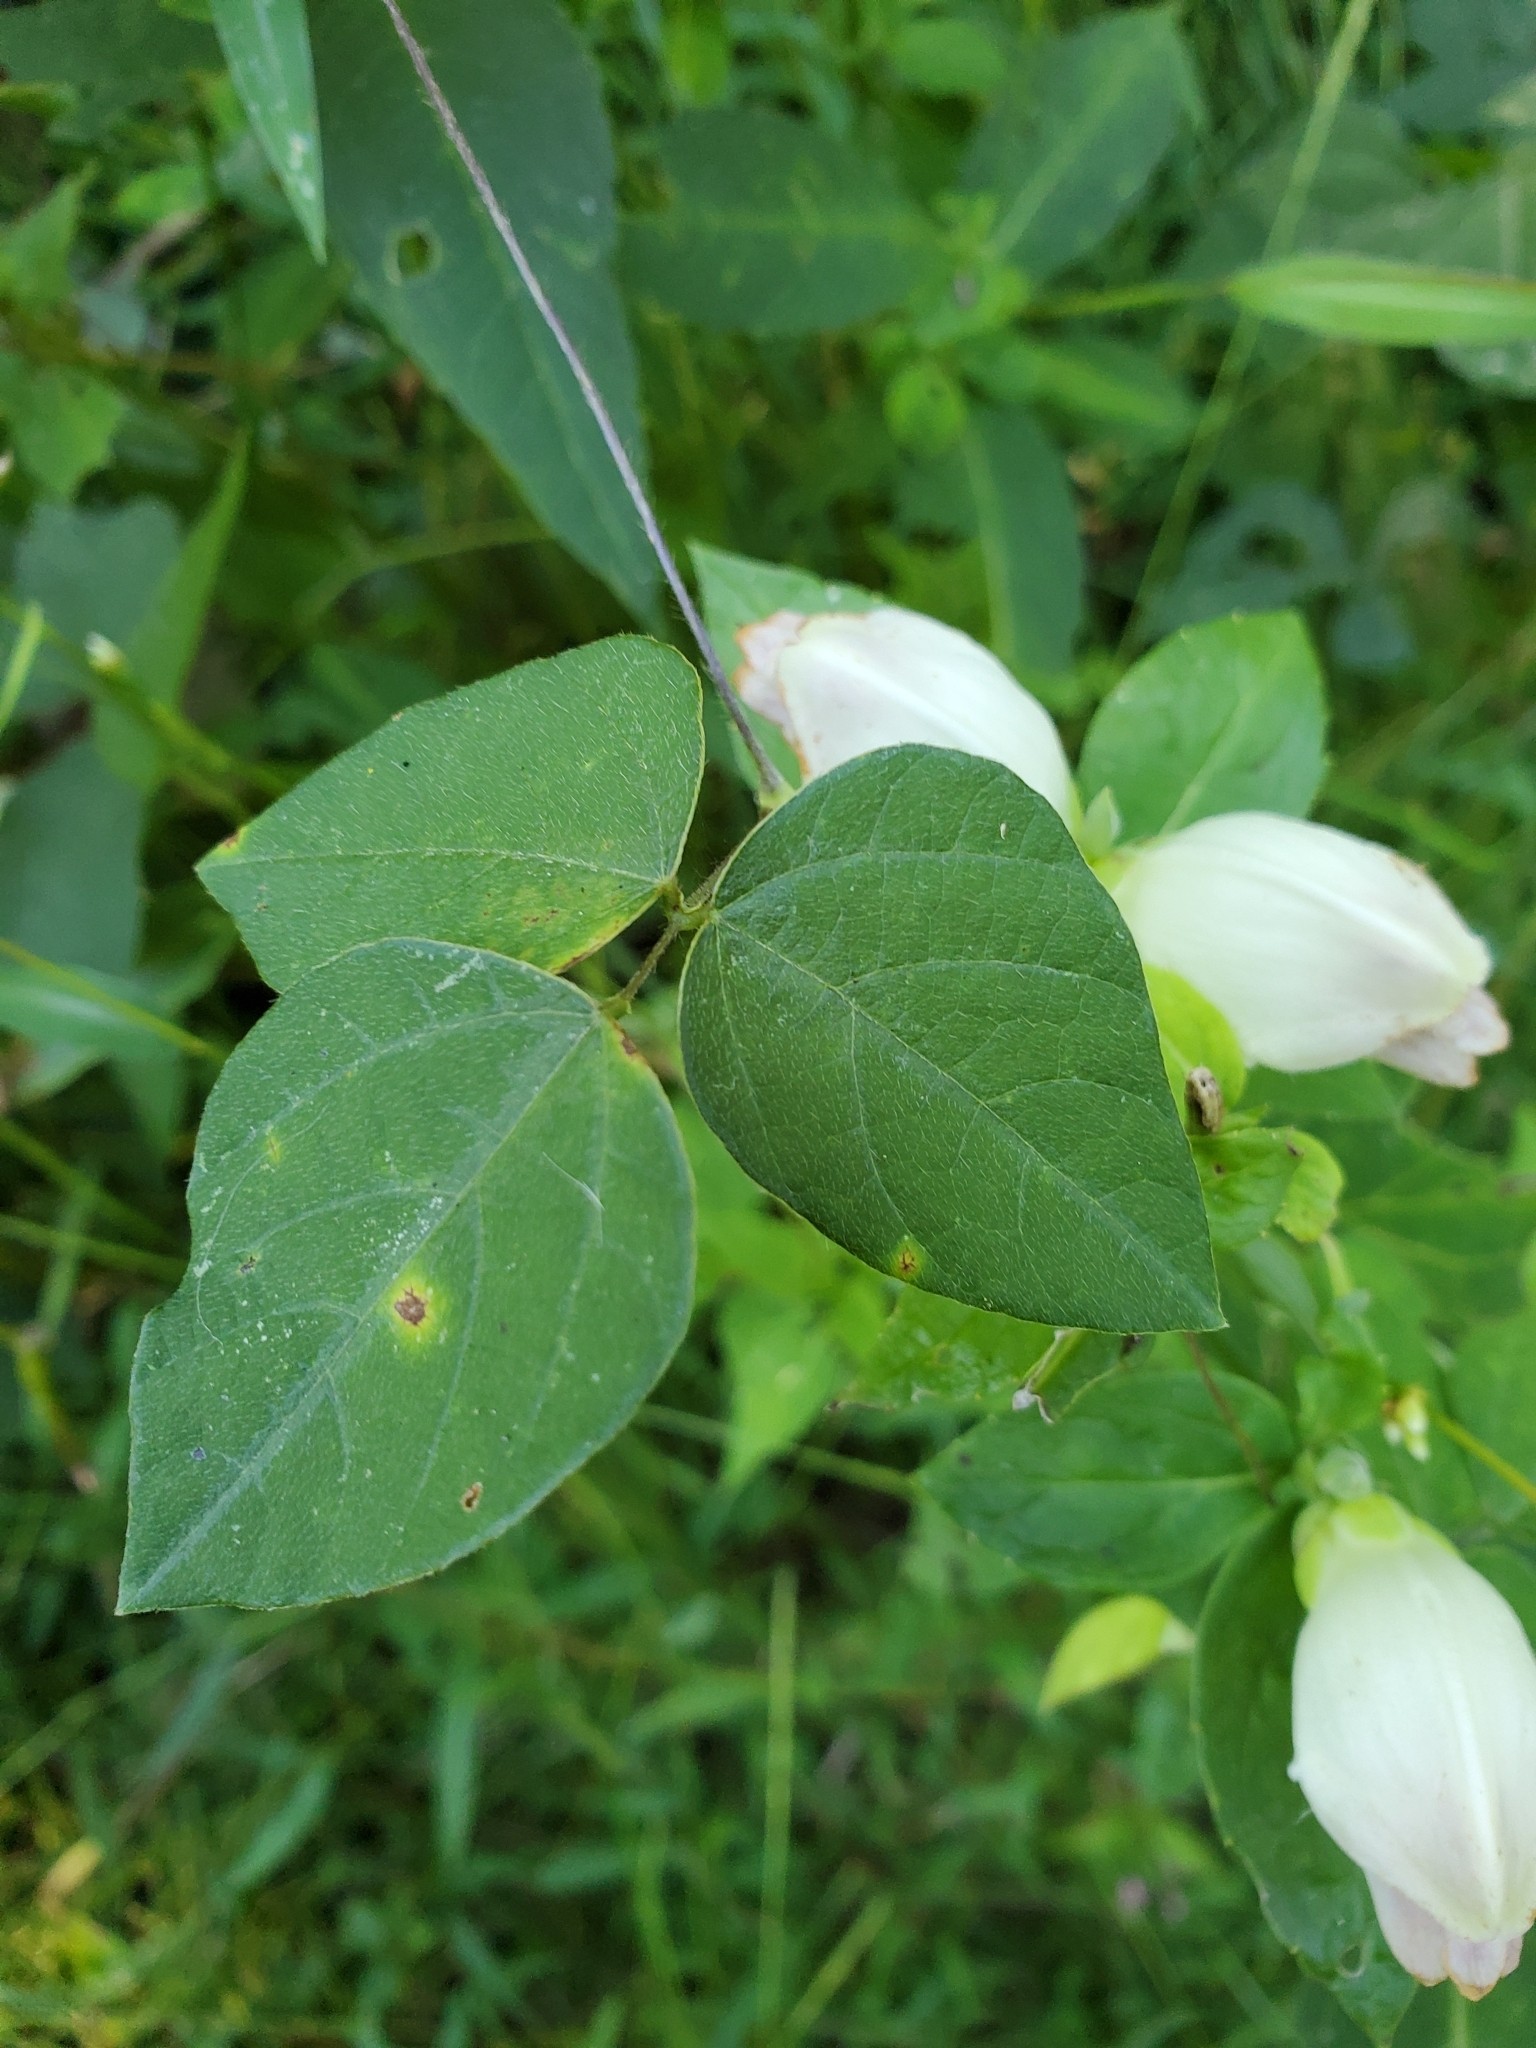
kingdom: Plantae
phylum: Tracheophyta
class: Magnoliopsida
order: Lamiales
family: Plantaginaceae
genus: Chelone
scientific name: Chelone glabra
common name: Snakehead
